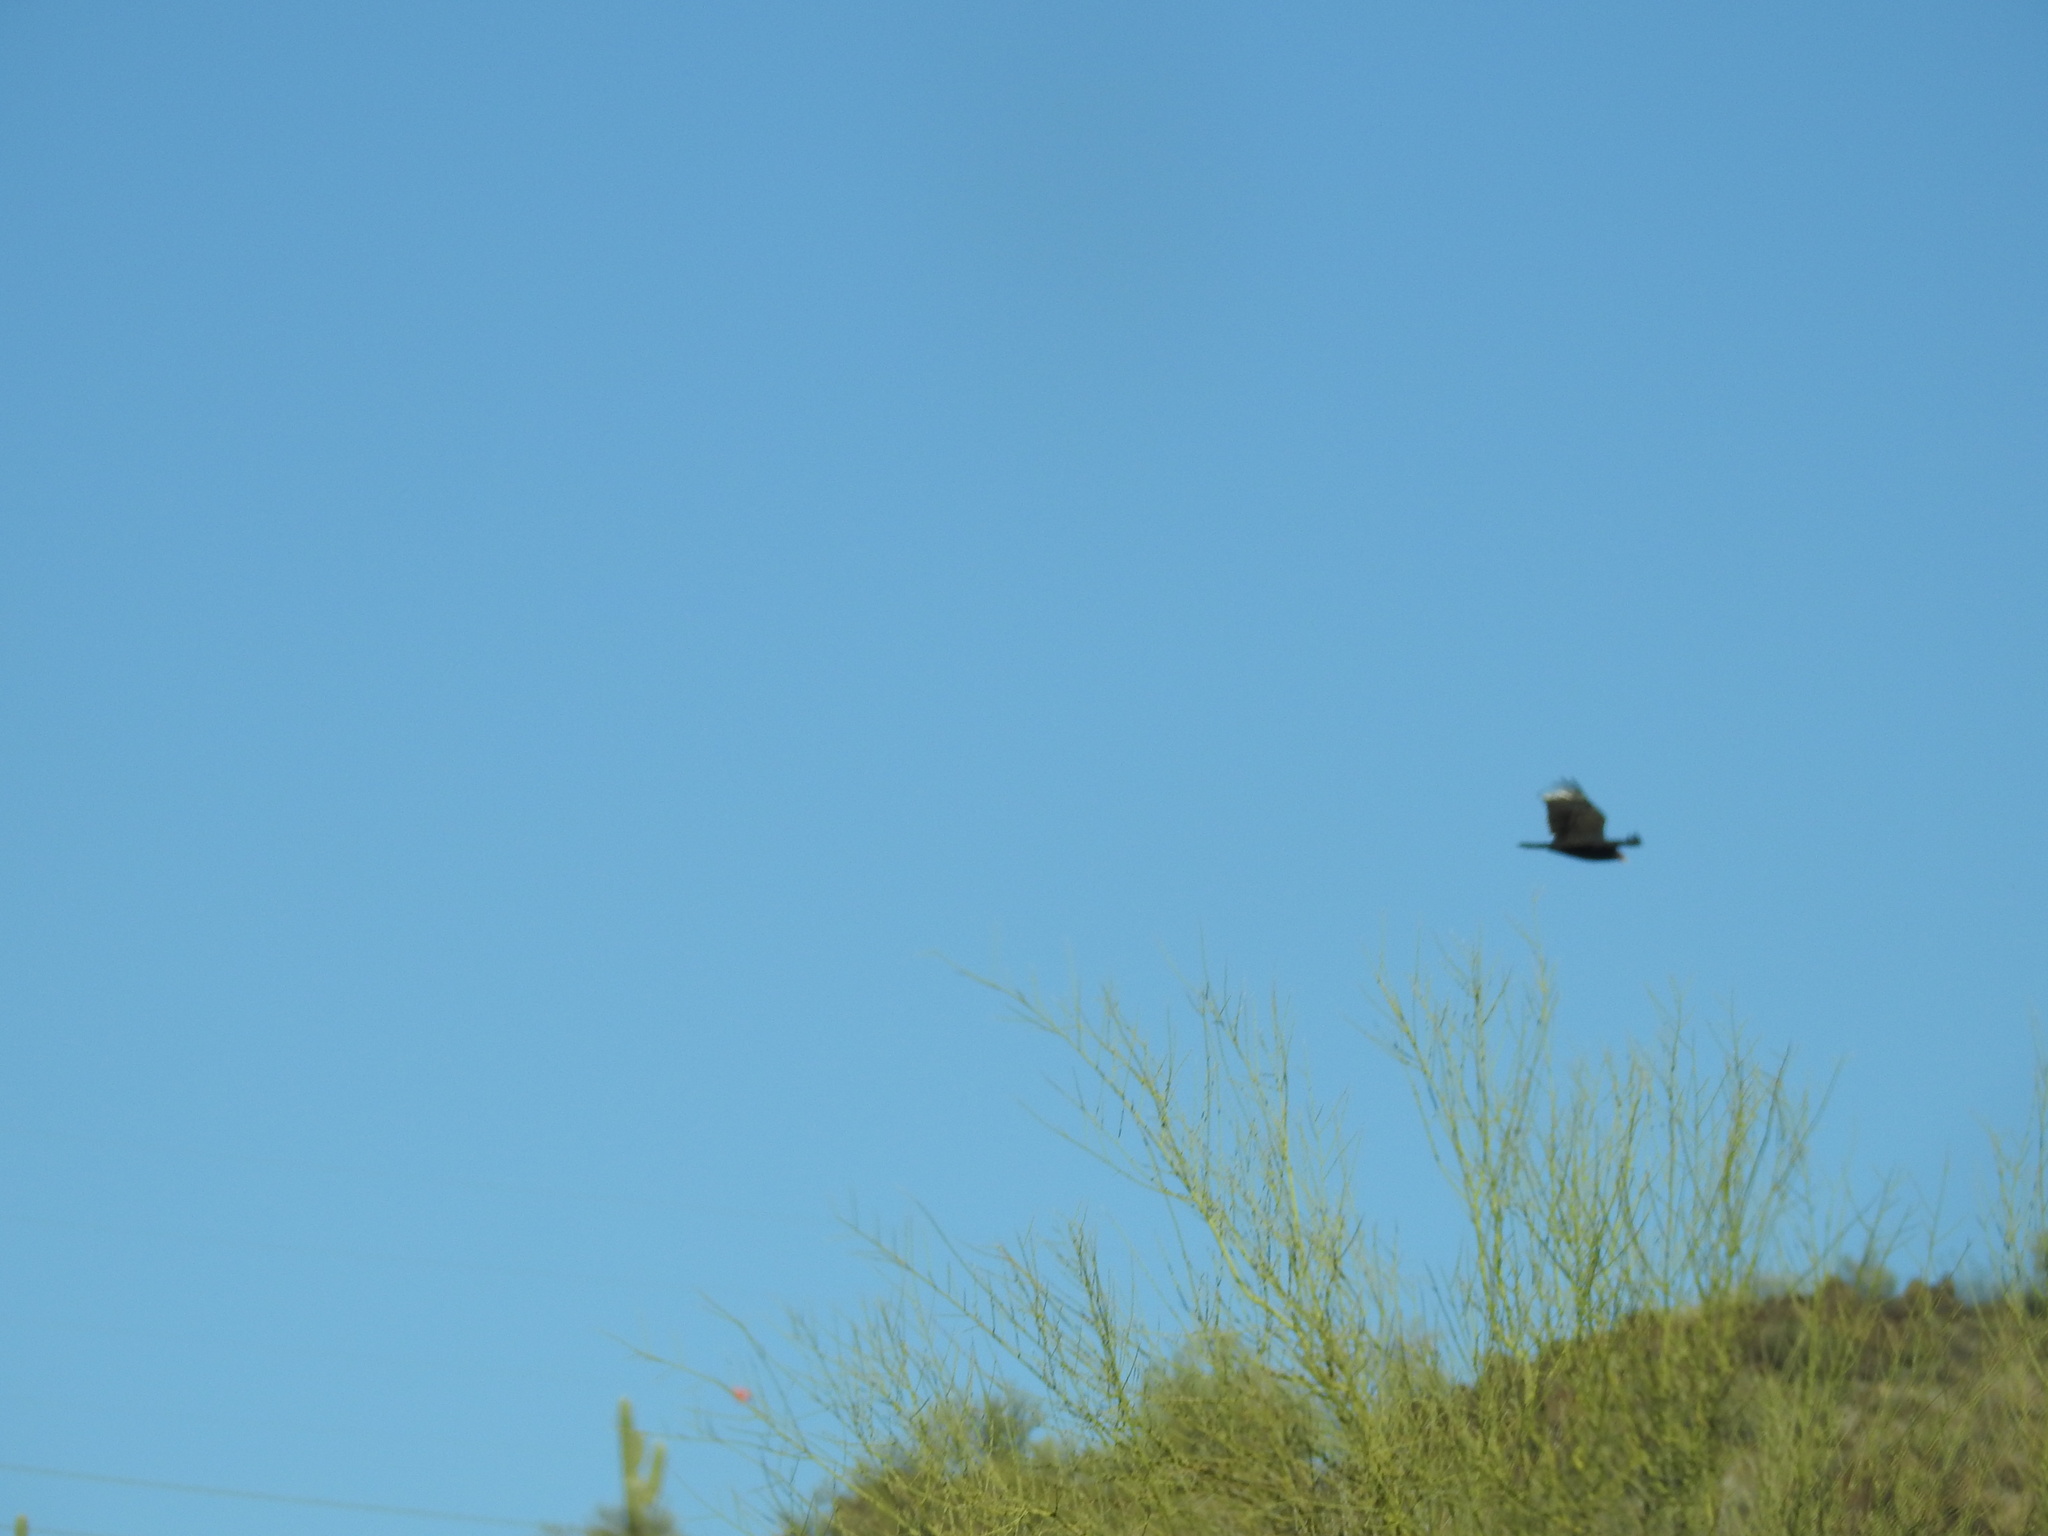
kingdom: Animalia
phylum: Chordata
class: Aves
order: Accipitriformes
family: Cathartidae
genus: Cathartes
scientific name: Cathartes aura
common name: Turkey vulture
